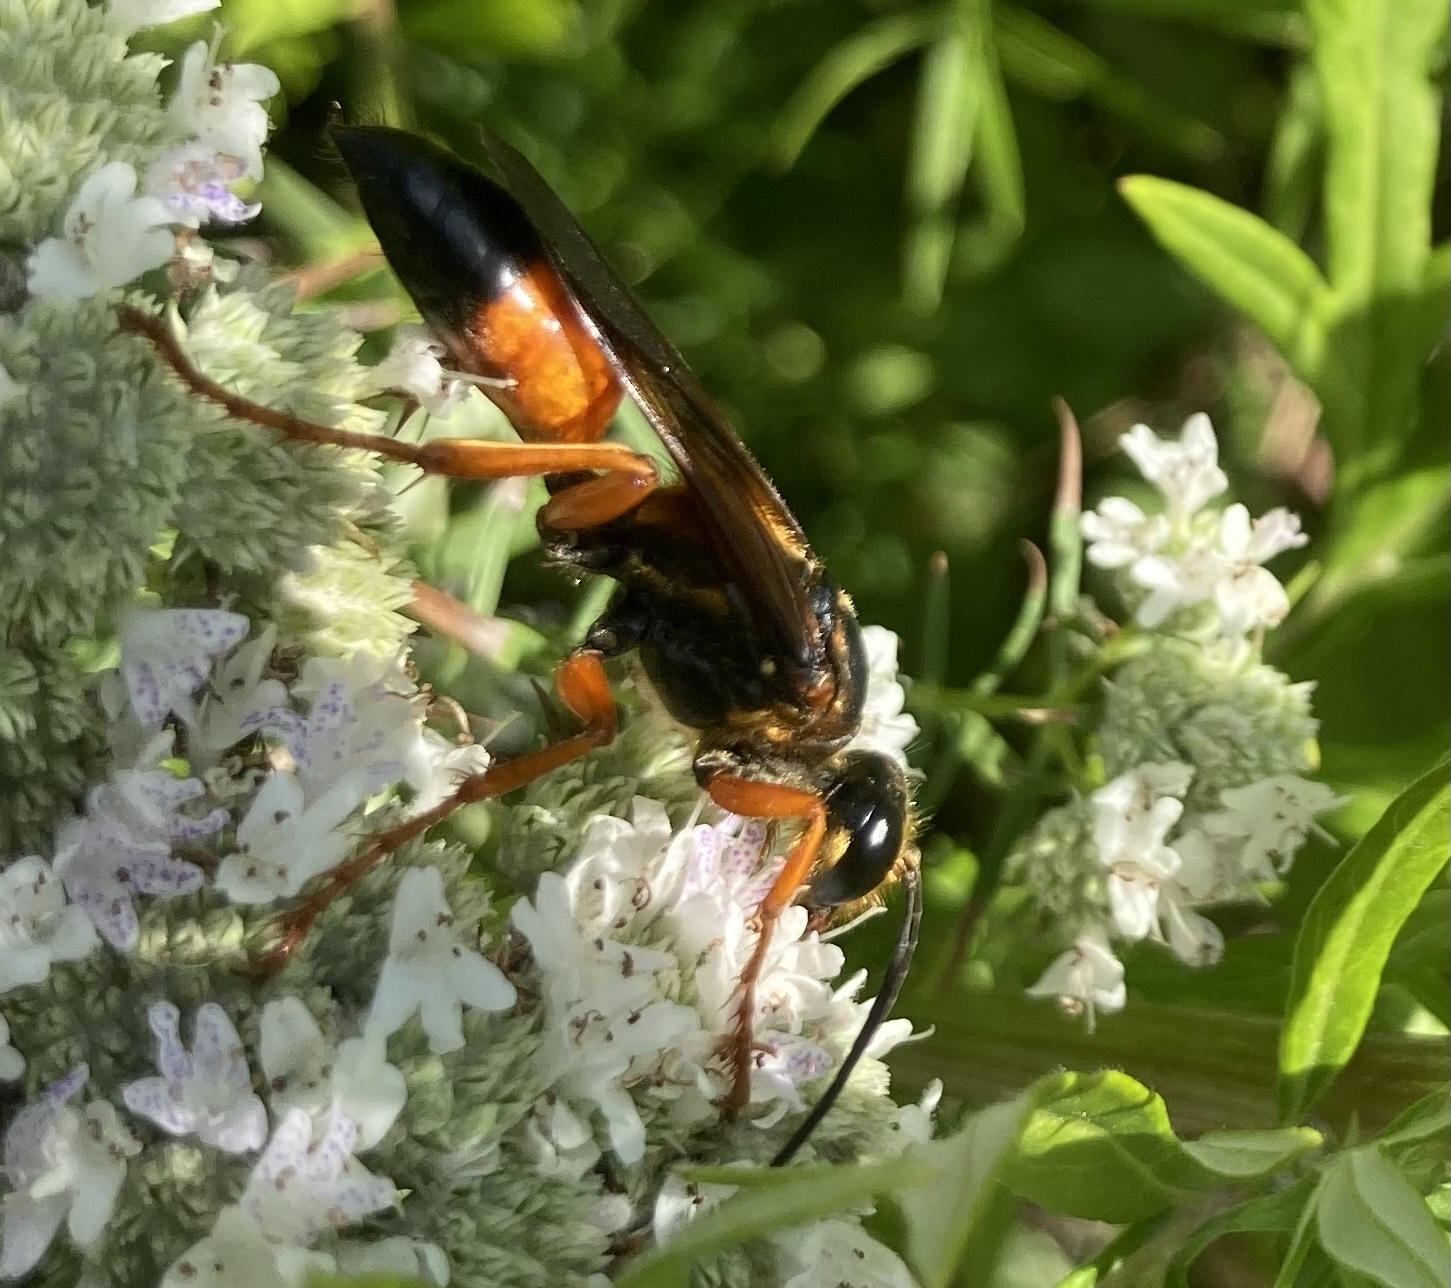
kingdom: Animalia
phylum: Arthropoda
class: Insecta
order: Hymenoptera
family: Sphecidae
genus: Sphex
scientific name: Sphex ichneumoneus
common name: Great golden digger wasp
